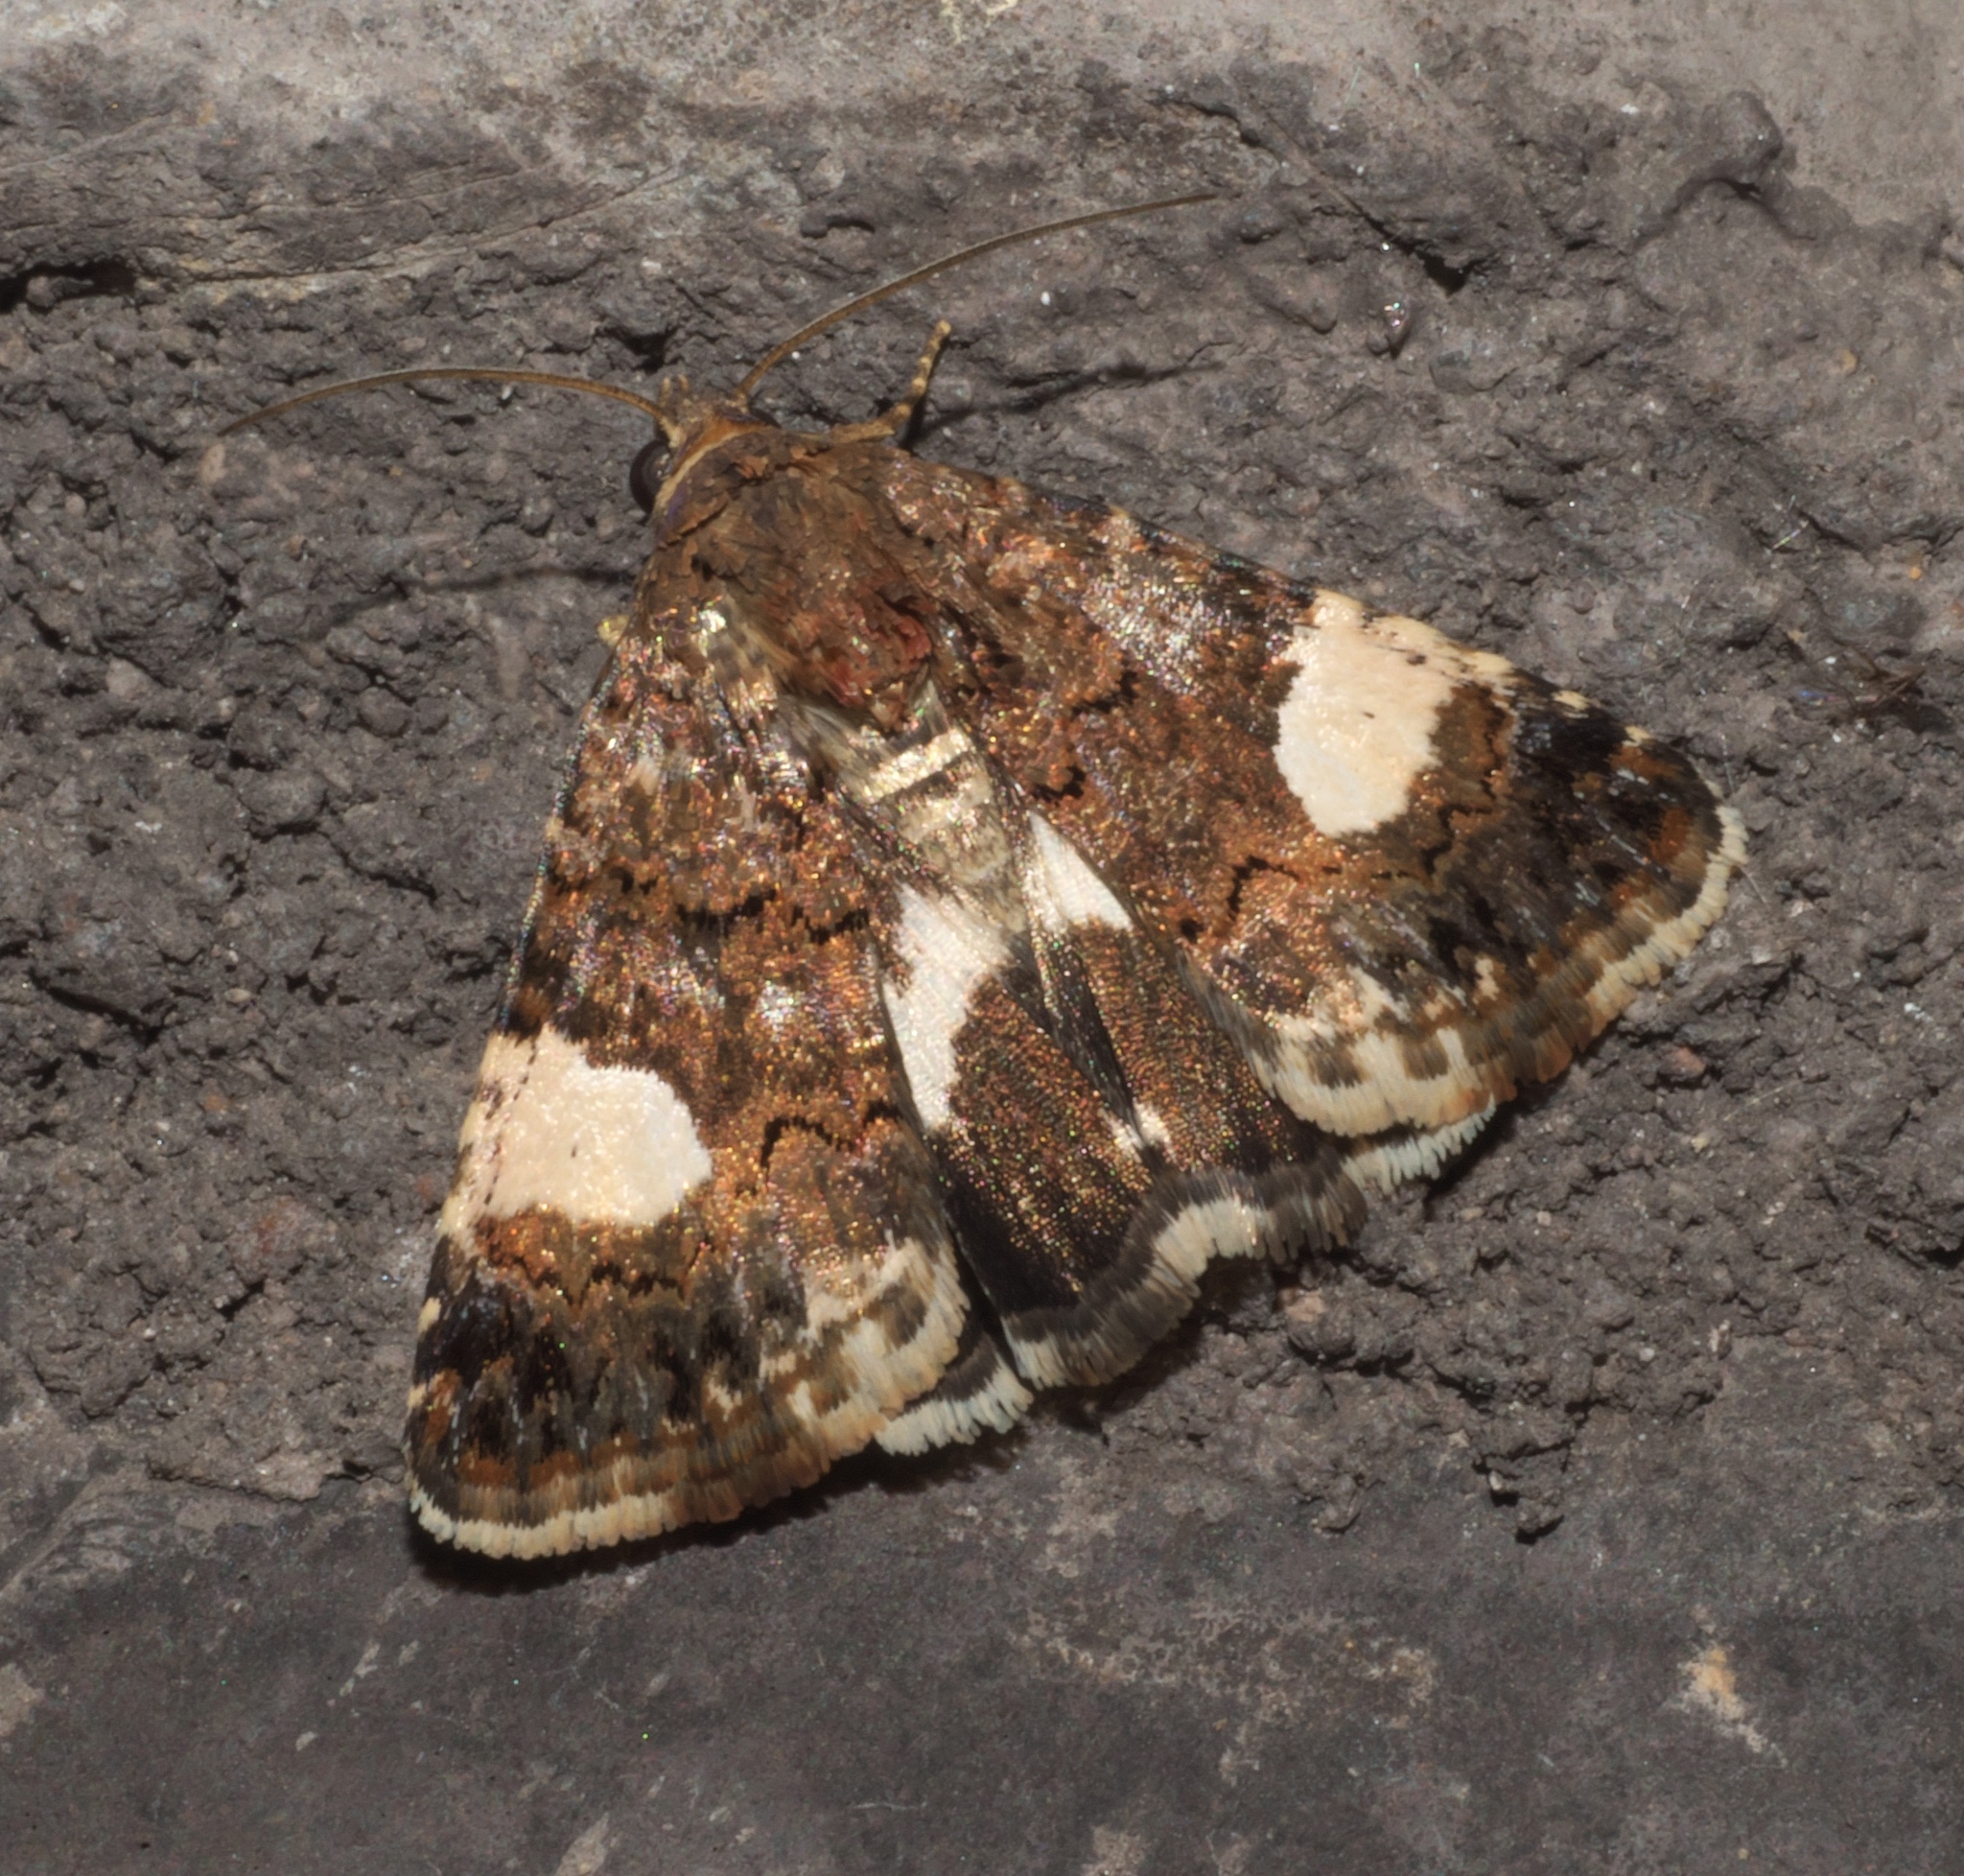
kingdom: Animalia
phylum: Arthropoda
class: Insecta
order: Lepidoptera
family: Erebidae
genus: Tyta
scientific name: Tyta luctuosa
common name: Four-spotted
